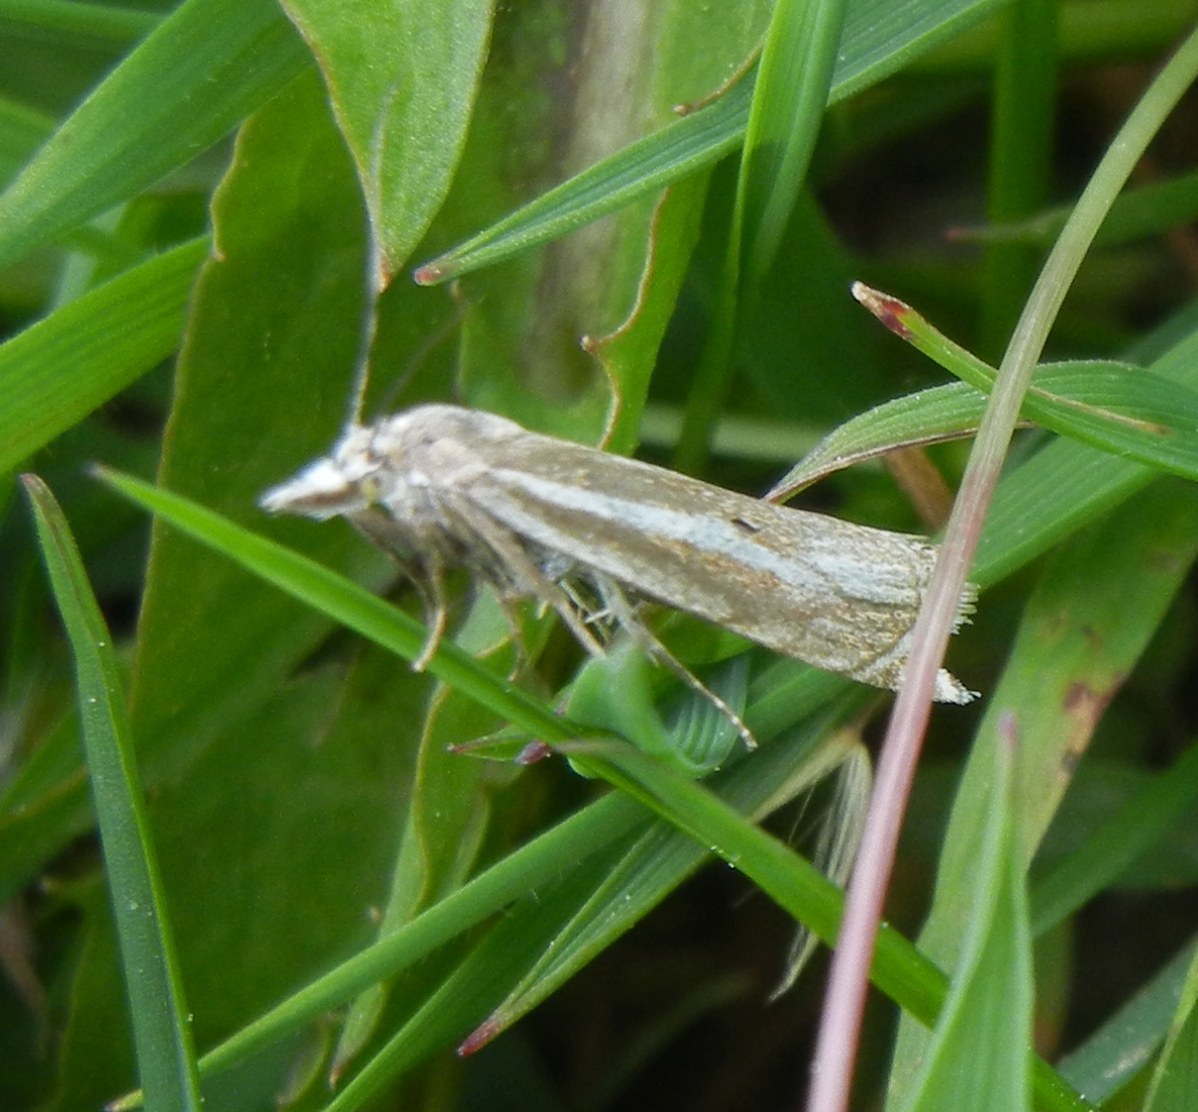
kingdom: Animalia
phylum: Arthropoda
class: Insecta
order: Lepidoptera
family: Crambidae
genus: Crambus
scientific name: Crambus nemorella
